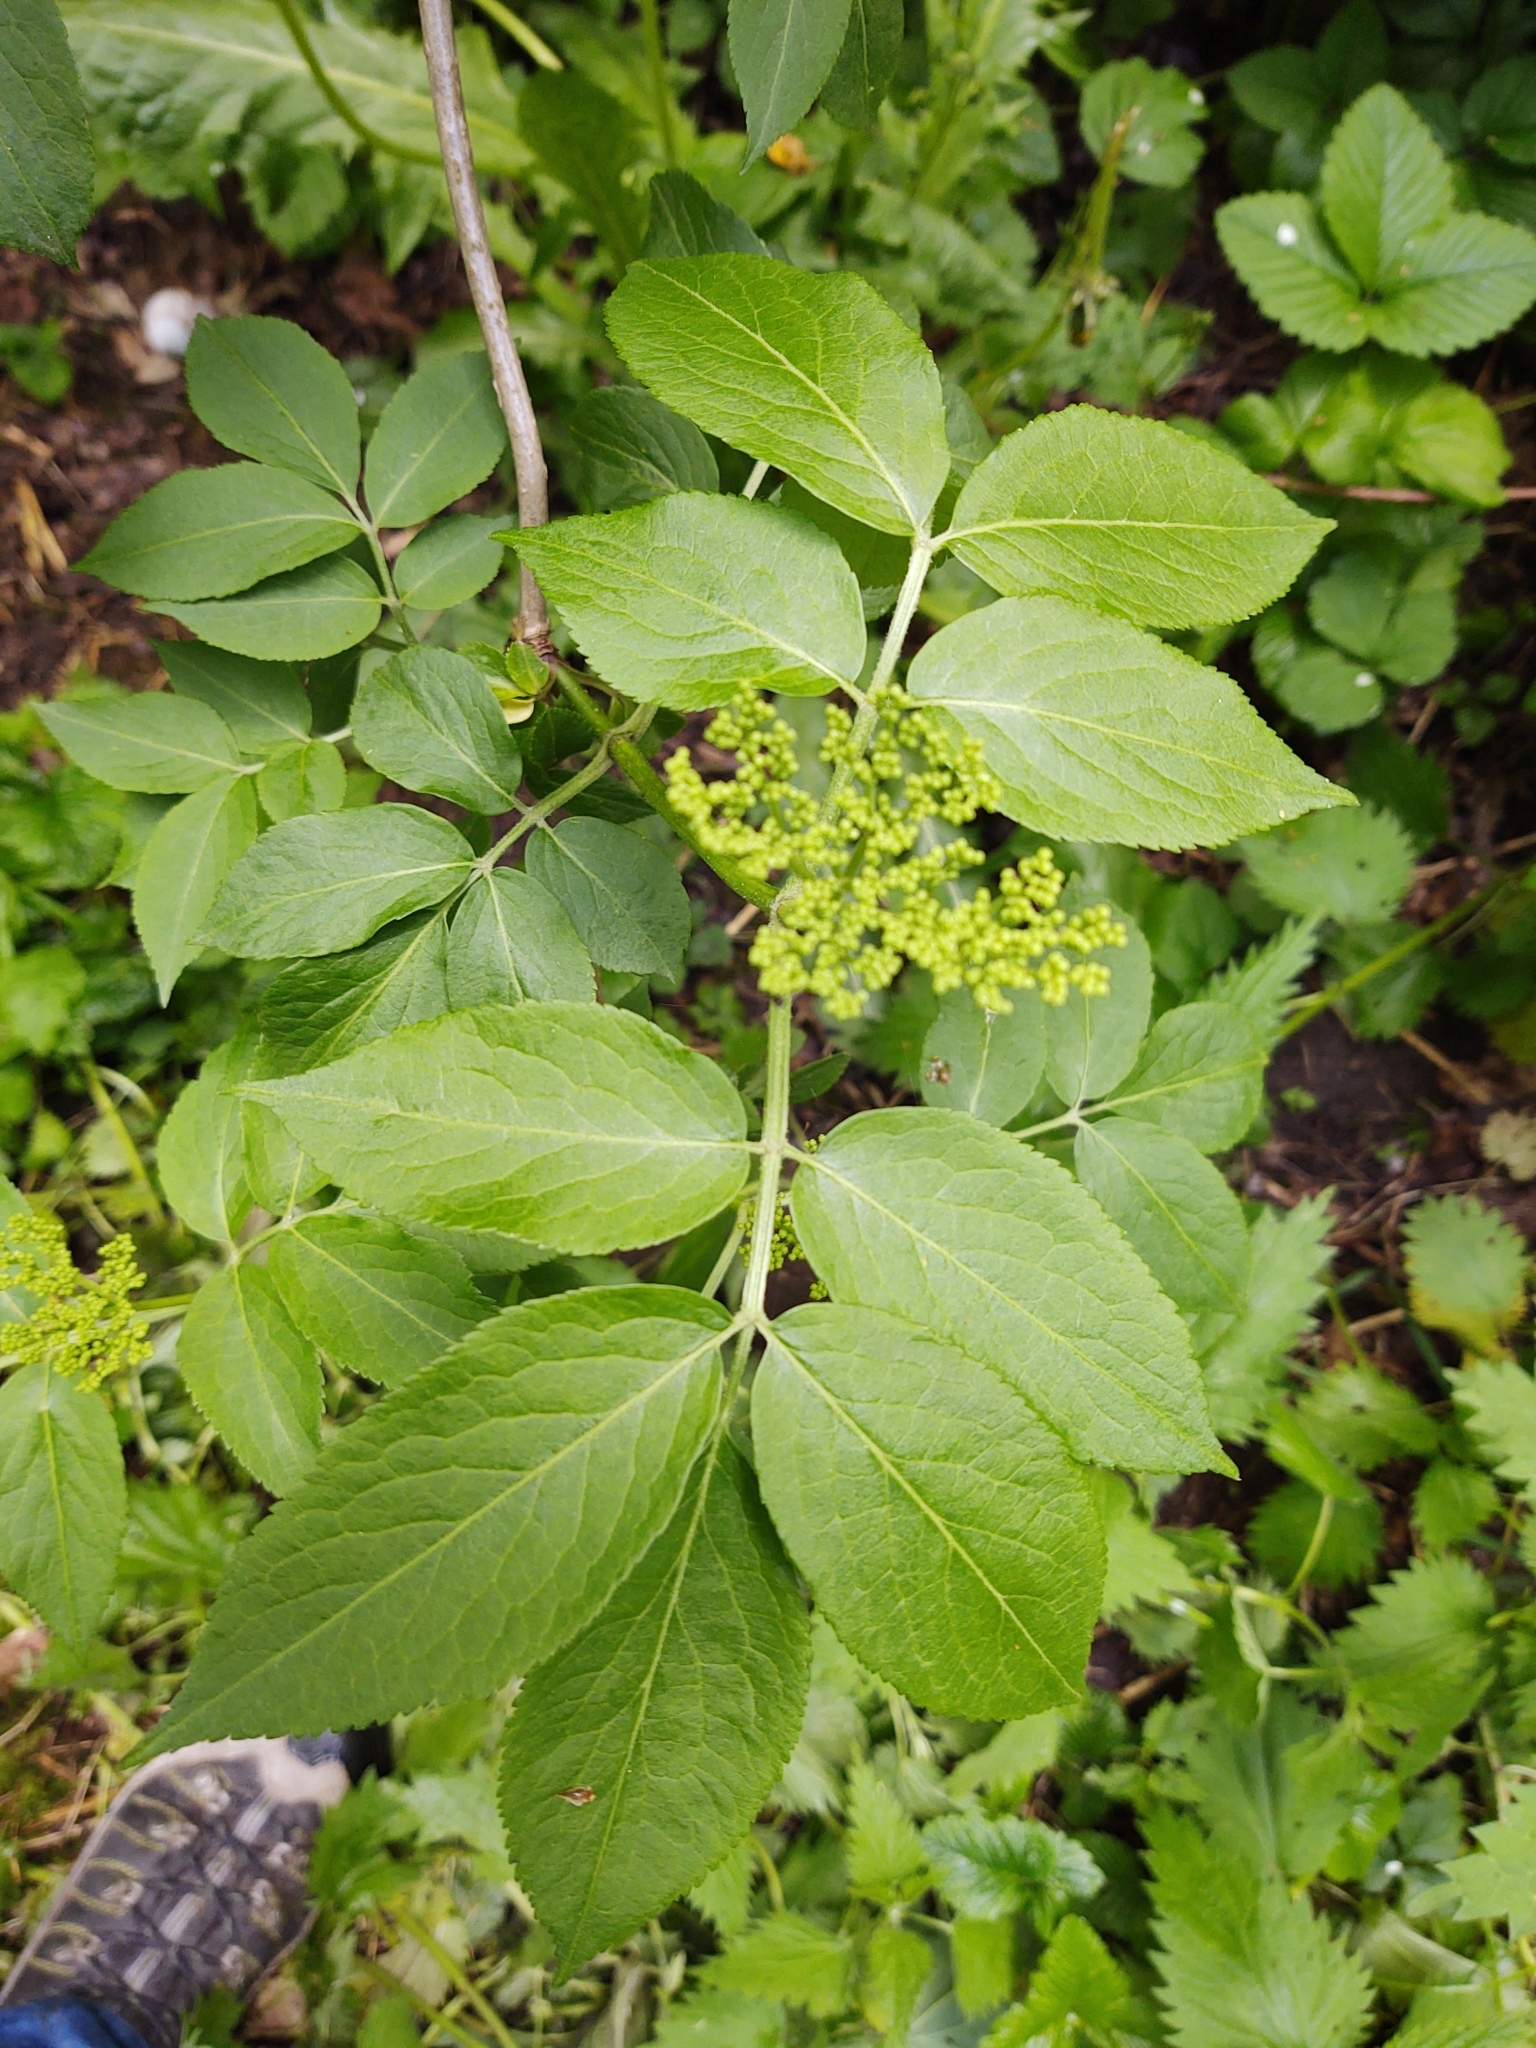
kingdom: Plantae
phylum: Tracheophyta
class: Magnoliopsida
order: Dipsacales
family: Viburnaceae
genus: Sambucus
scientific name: Sambucus nigra
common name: Elder
